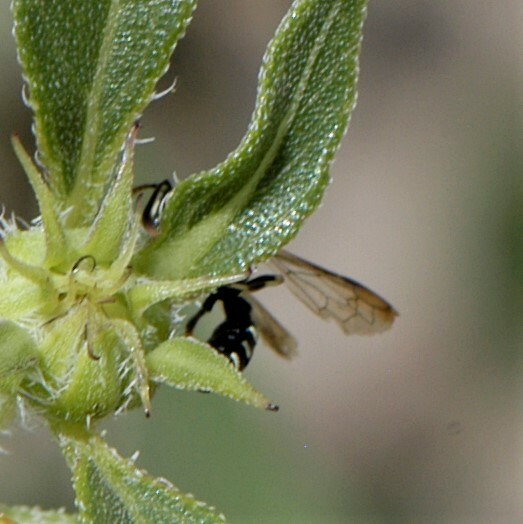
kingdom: Animalia
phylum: Arthropoda
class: Insecta
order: Hymenoptera
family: Crabronidae
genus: Cerceris
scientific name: Cerceris
